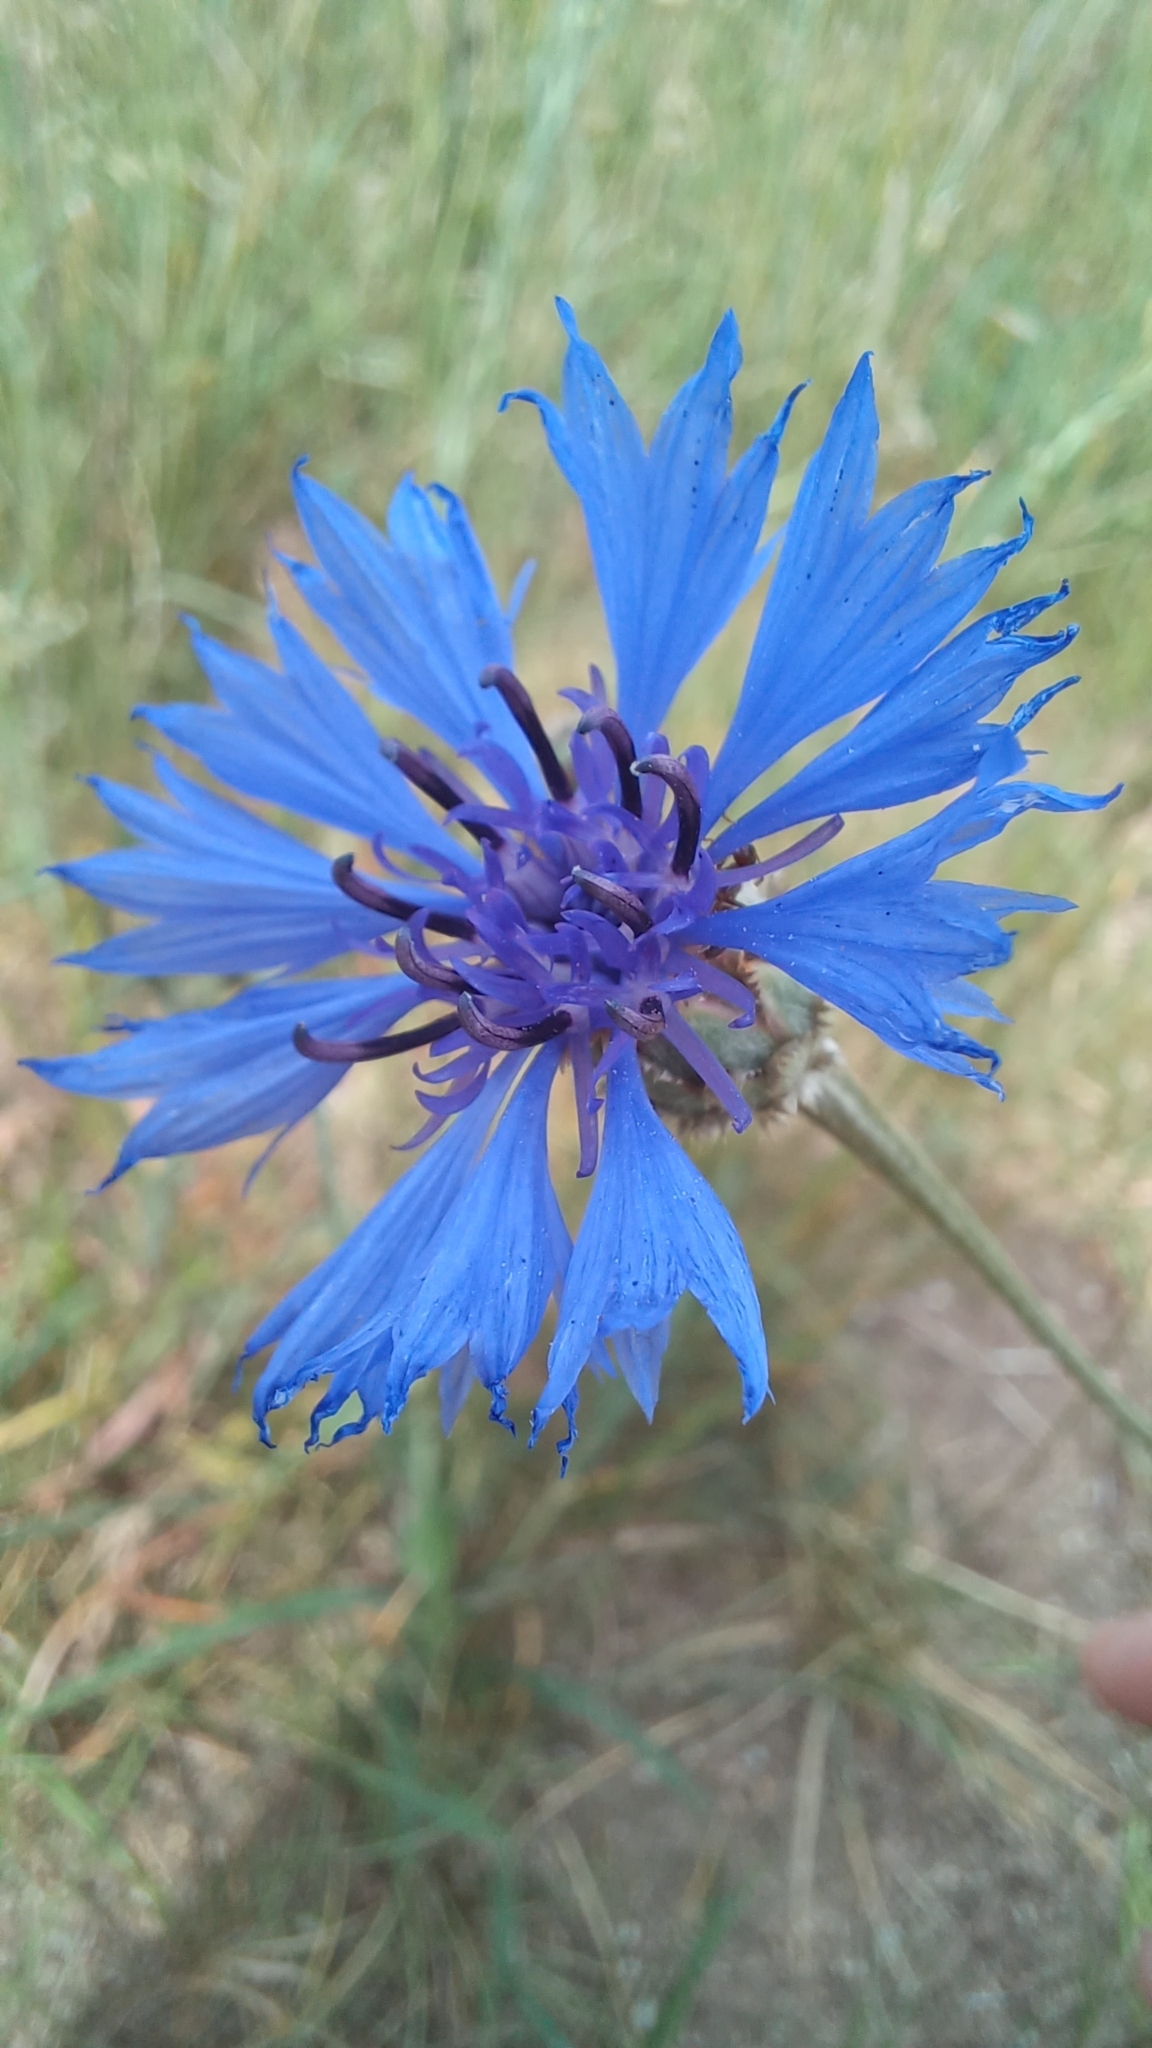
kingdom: Plantae
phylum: Tracheophyta
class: Magnoliopsida
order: Asterales
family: Asteraceae
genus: Centaurea
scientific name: Centaurea cyanus
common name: Cornflower
